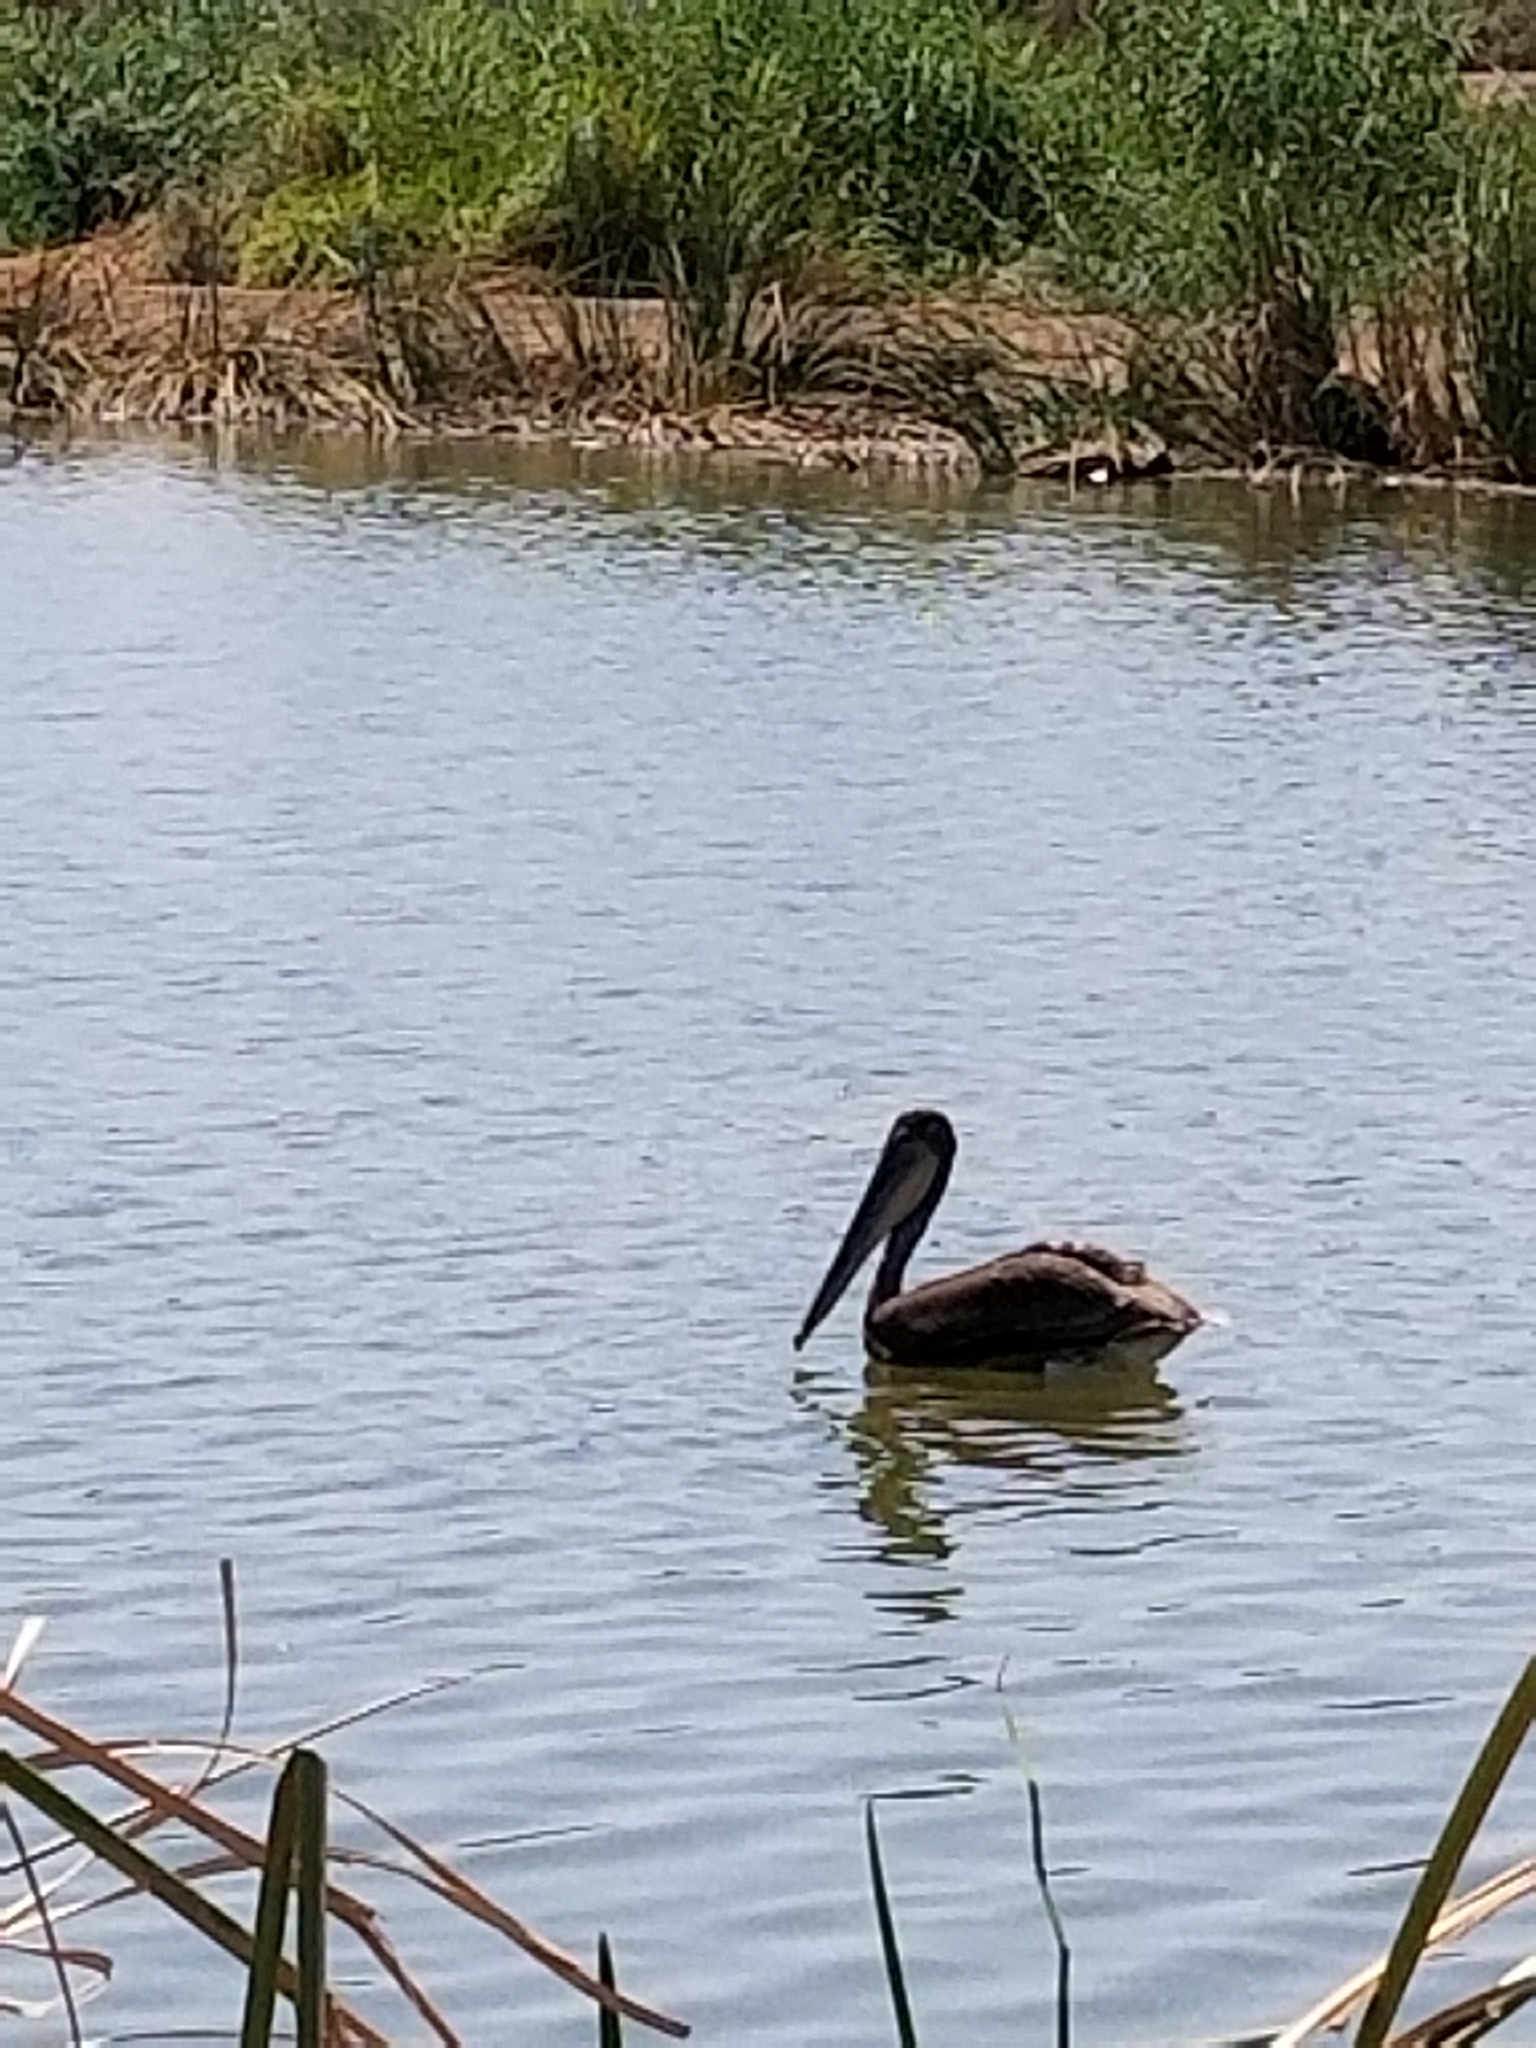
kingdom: Animalia
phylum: Chordata
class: Aves
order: Pelecaniformes
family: Pelecanidae
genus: Pelecanus
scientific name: Pelecanus occidentalis
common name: Brown pelican
